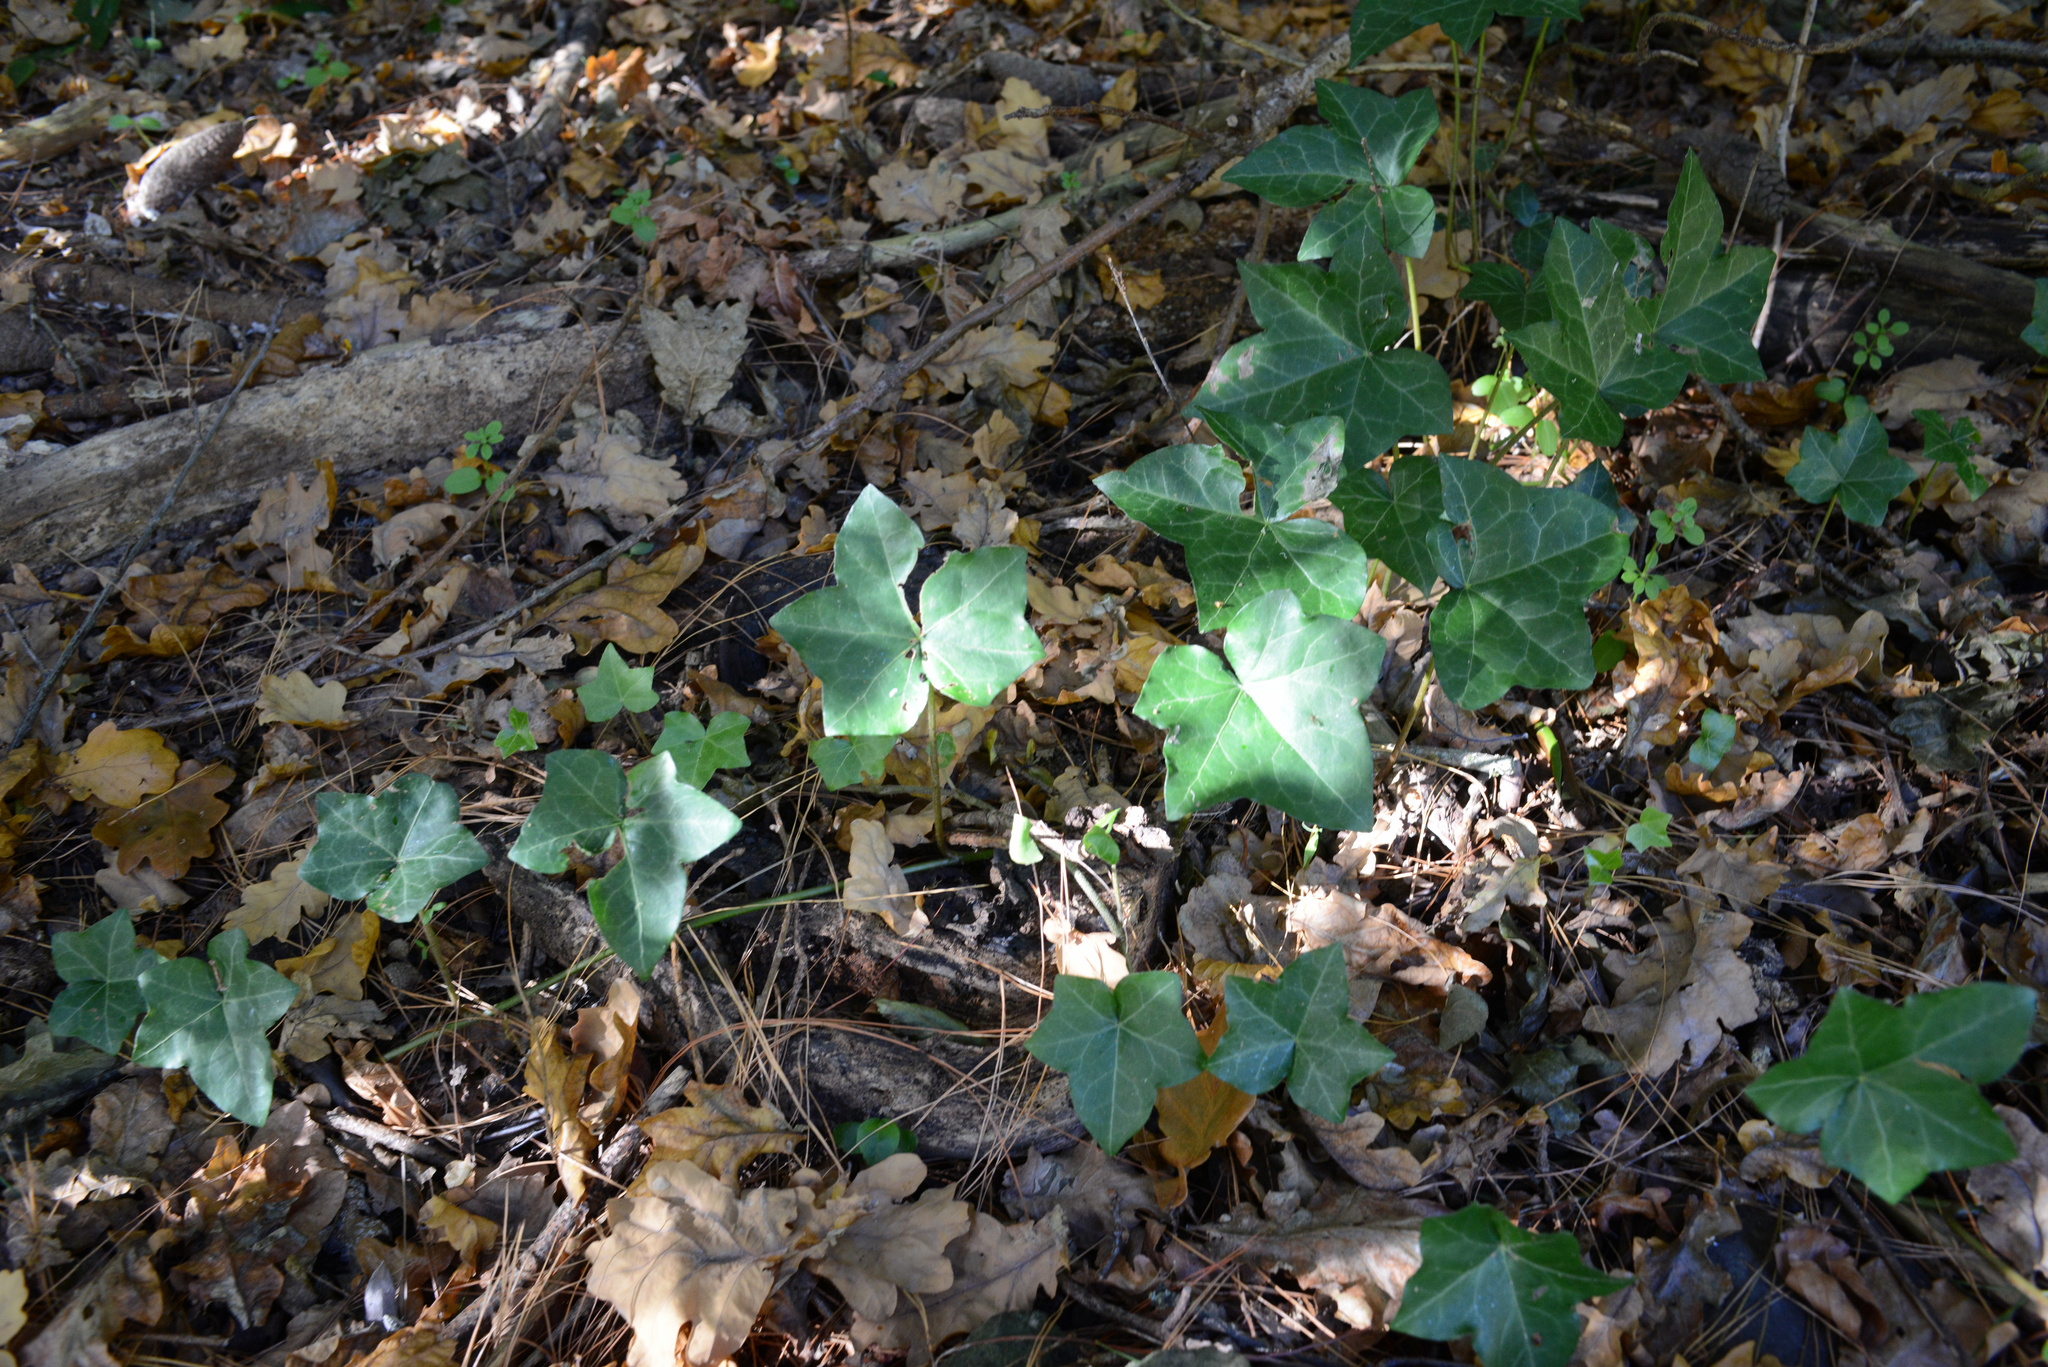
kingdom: Plantae
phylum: Tracheophyta
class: Magnoliopsida
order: Apiales
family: Araliaceae
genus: Hedera
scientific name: Hedera helix
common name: Ivy
